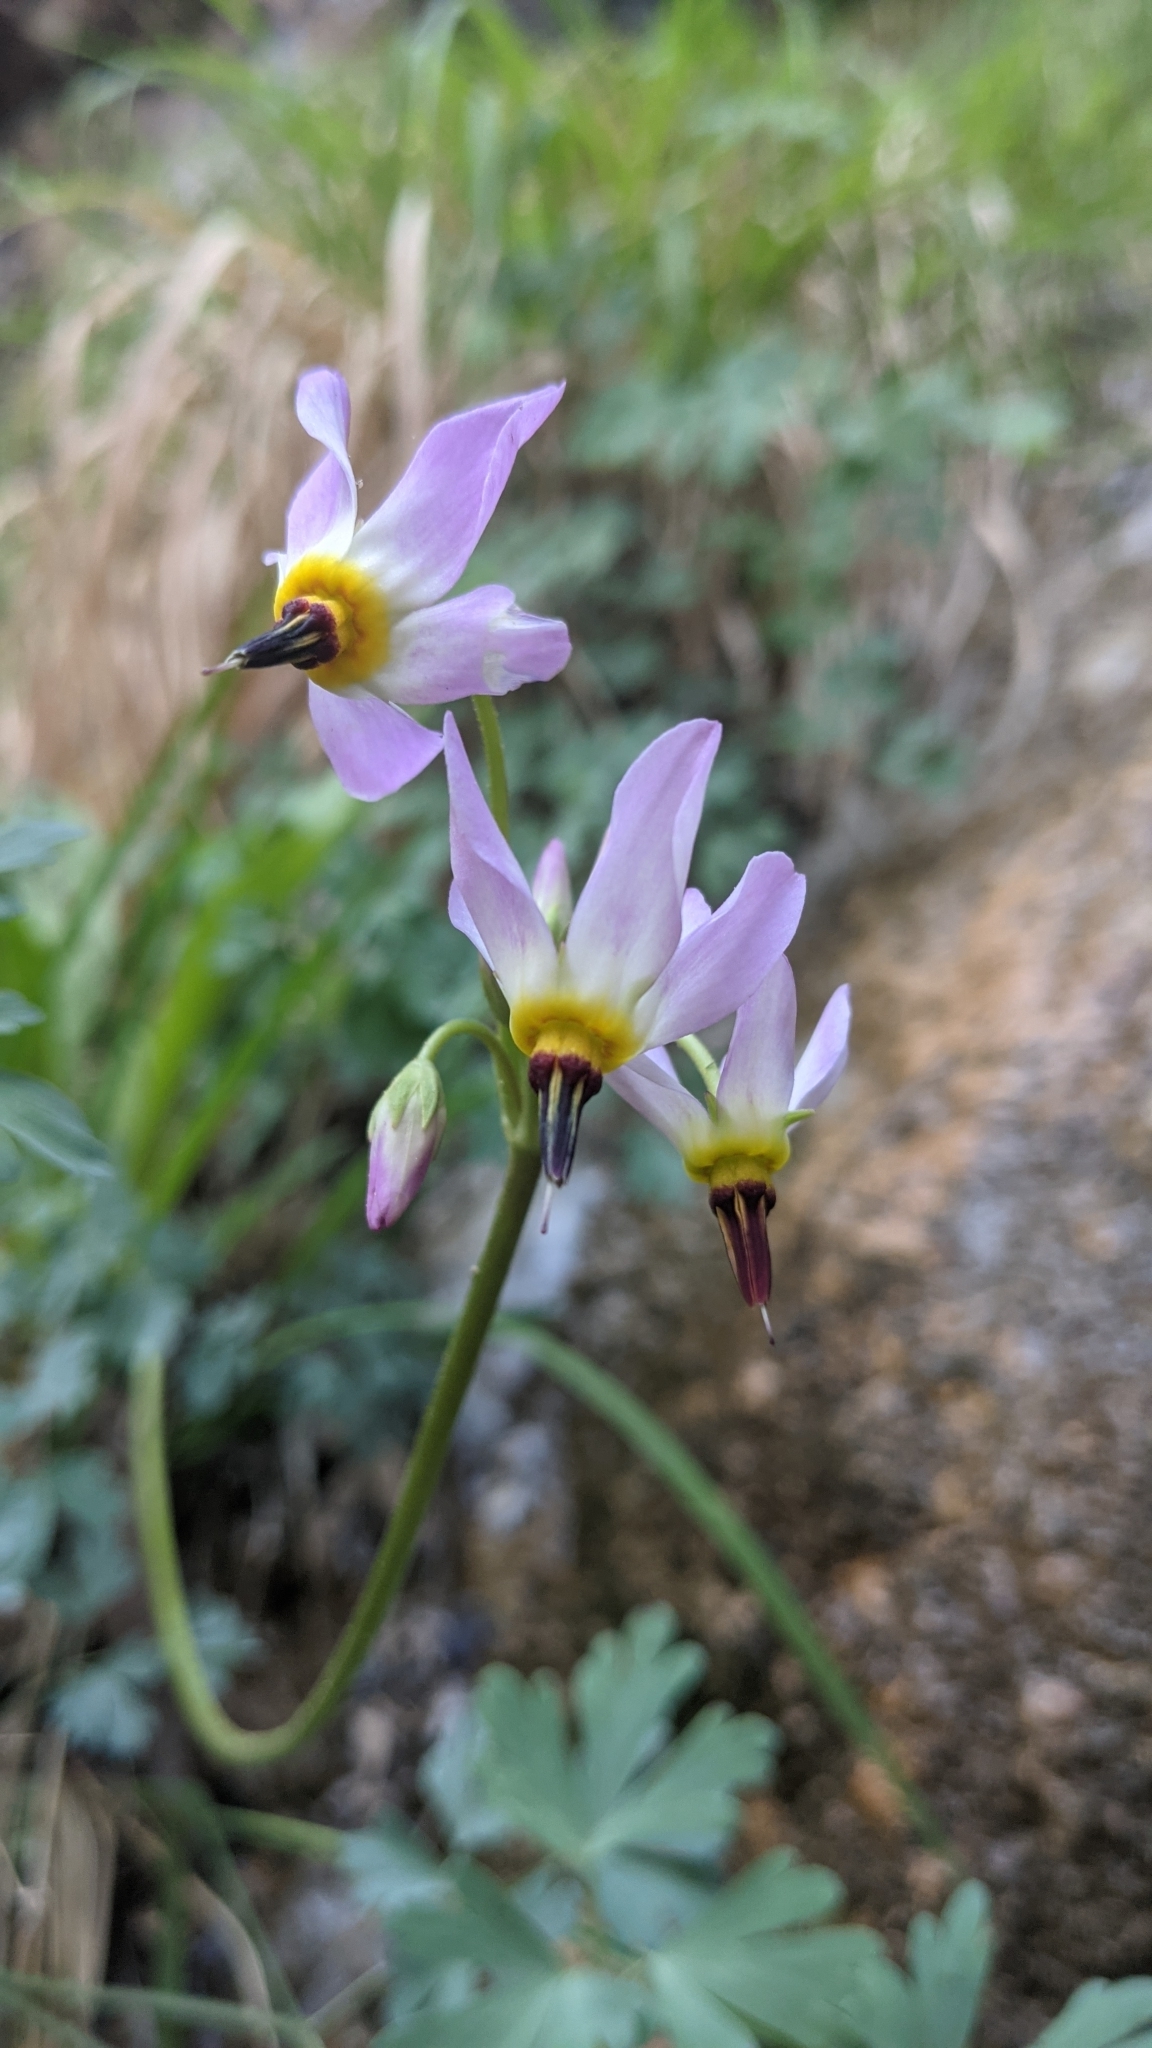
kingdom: Plantae
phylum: Tracheophyta
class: Magnoliopsida
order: Ericales
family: Primulaceae
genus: Dodecatheon
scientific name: Dodecatheon pulchellum
